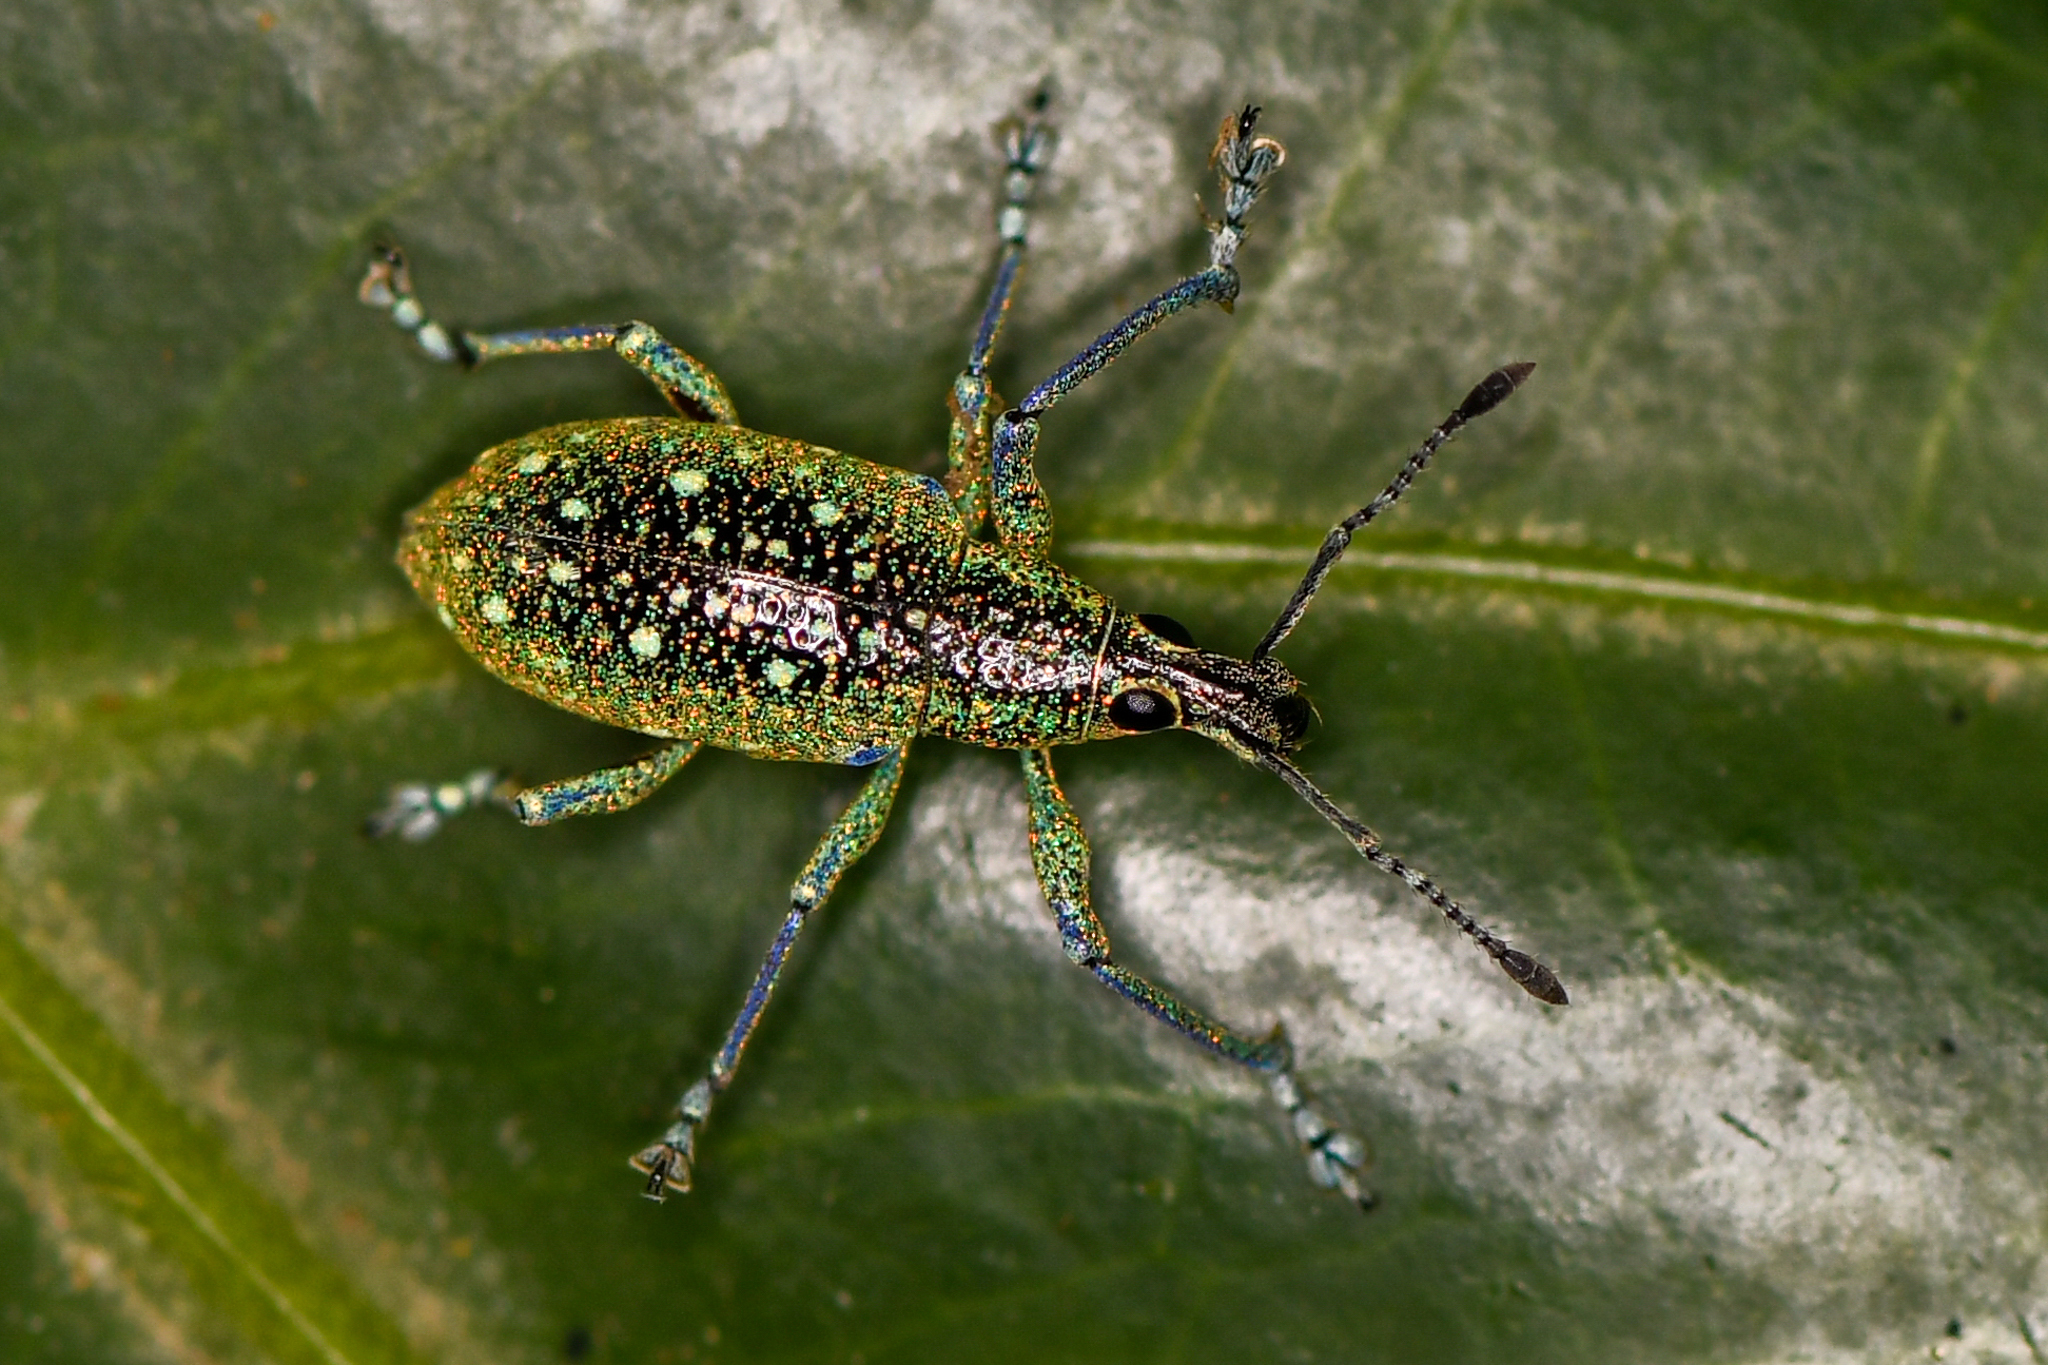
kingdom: Animalia
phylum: Arthropoda
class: Insecta
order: Coleoptera
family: Curculionidae
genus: Exophthalmus
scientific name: Exophthalmus jekelianus
